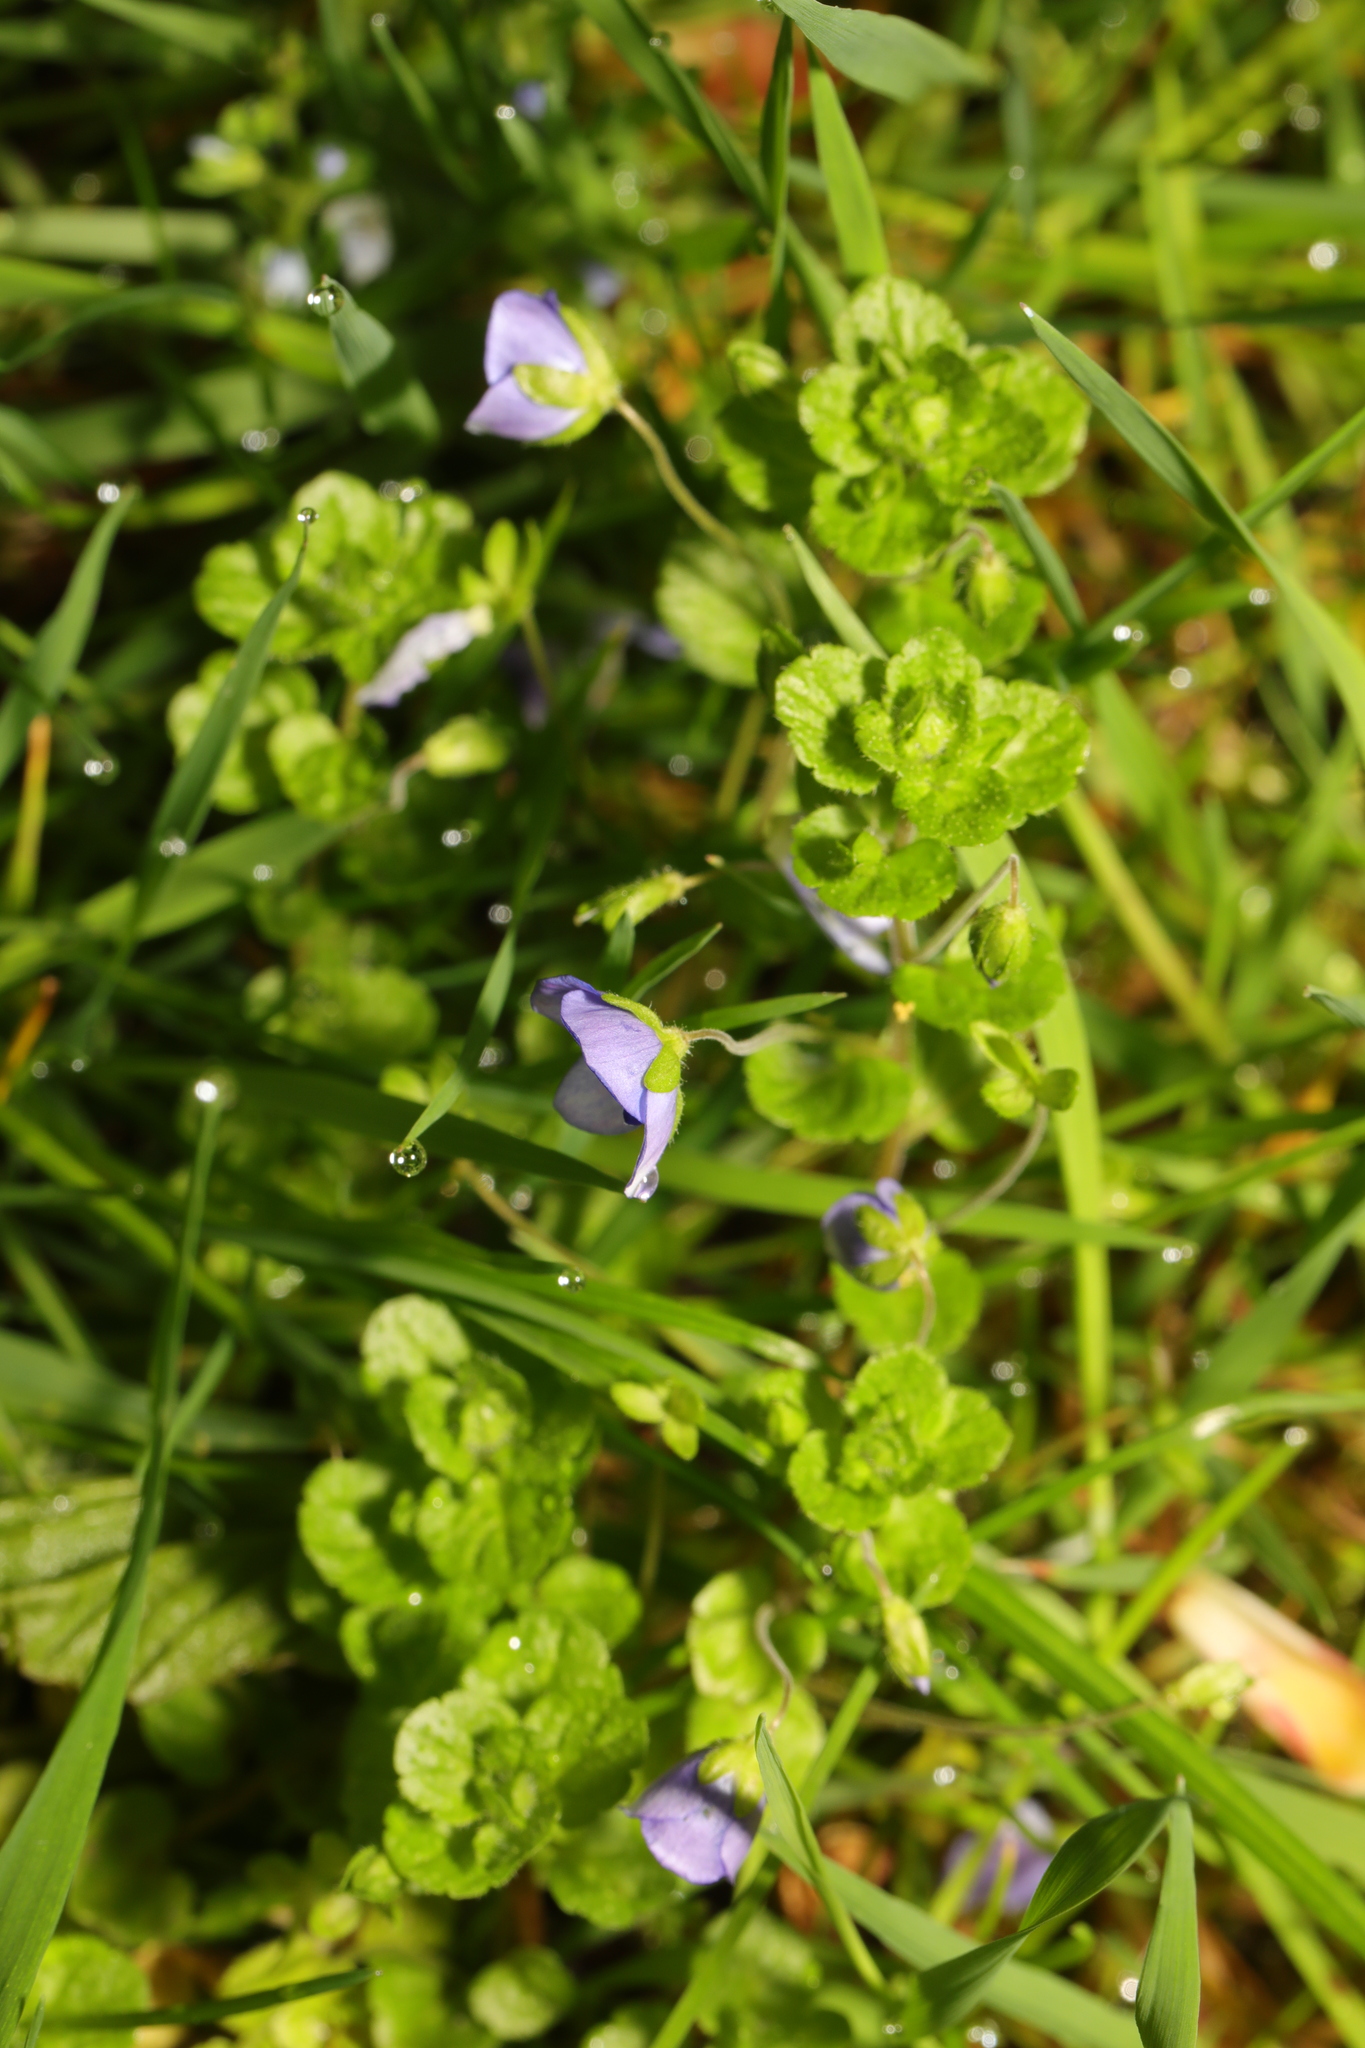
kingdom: Plantae
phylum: Tracheophyta
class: Magnoliopsida
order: Lamiales
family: Plantaginaceae
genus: Veronica
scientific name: Veronica filiformis
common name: Slender speedwell
